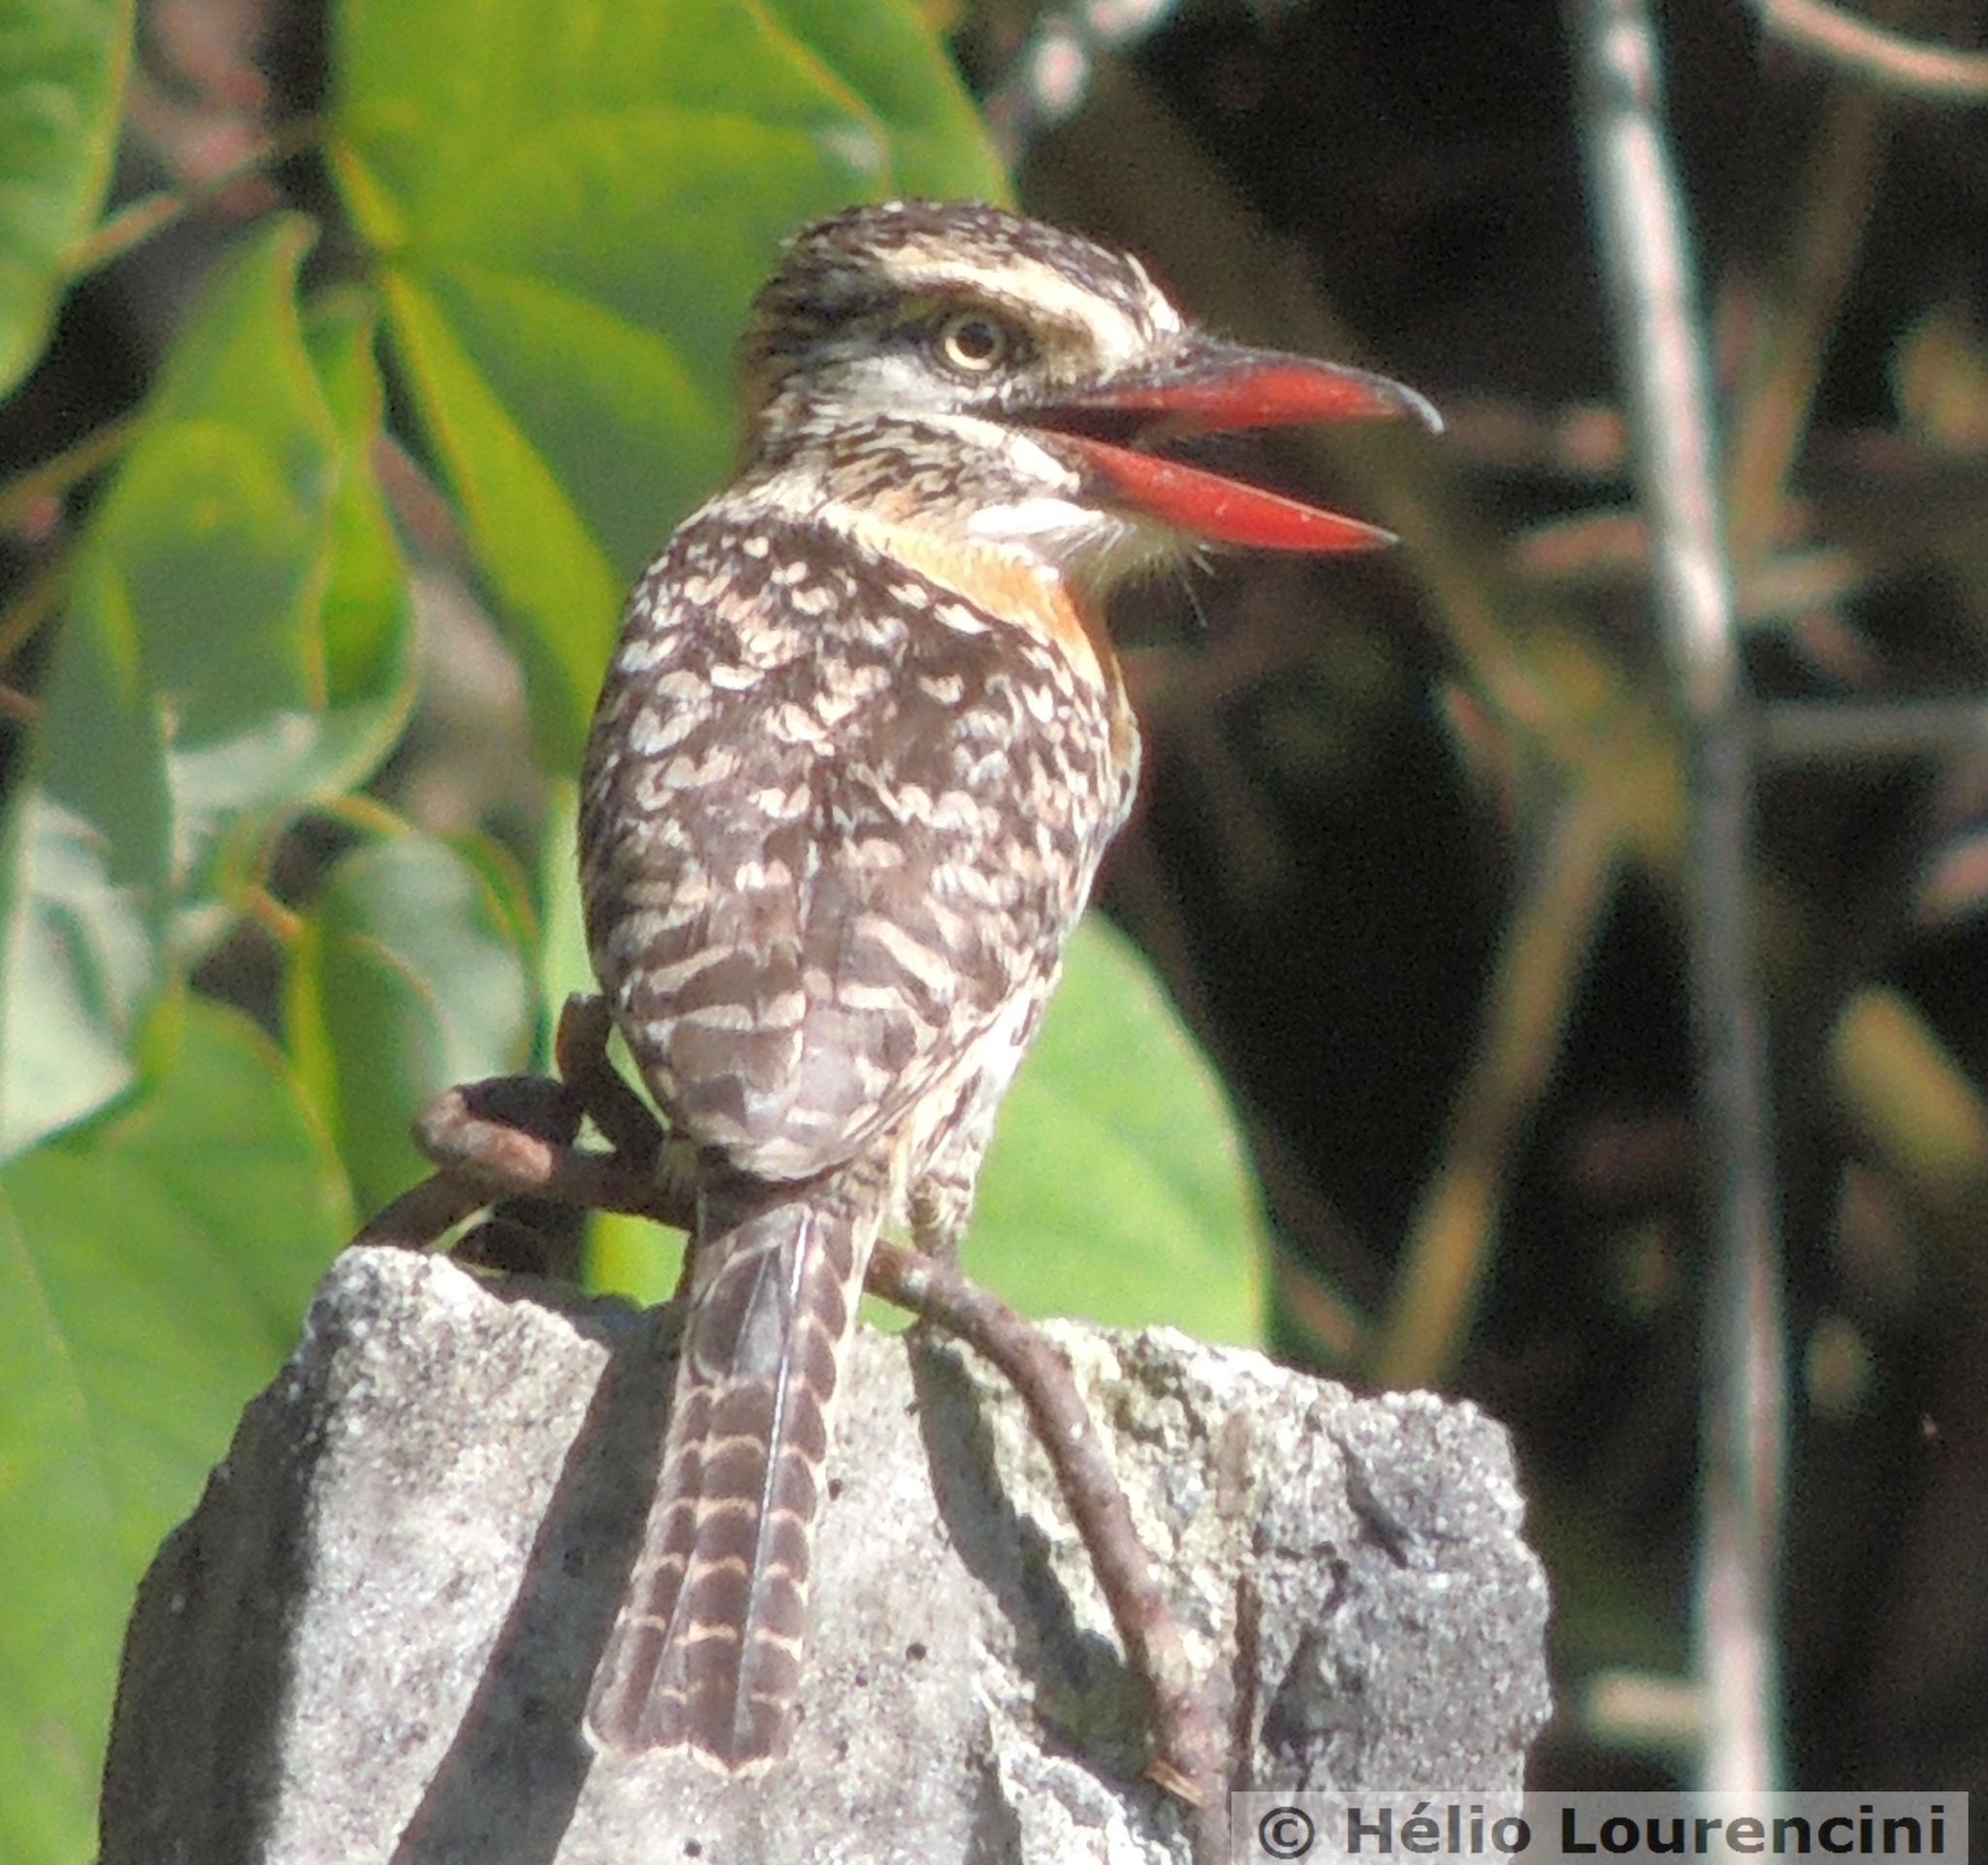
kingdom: Animalia
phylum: Chordata
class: Aves
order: Piciformes
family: Bucconidae
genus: Nystalus
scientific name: Nystalus maculatus
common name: Caatinga puffbird
